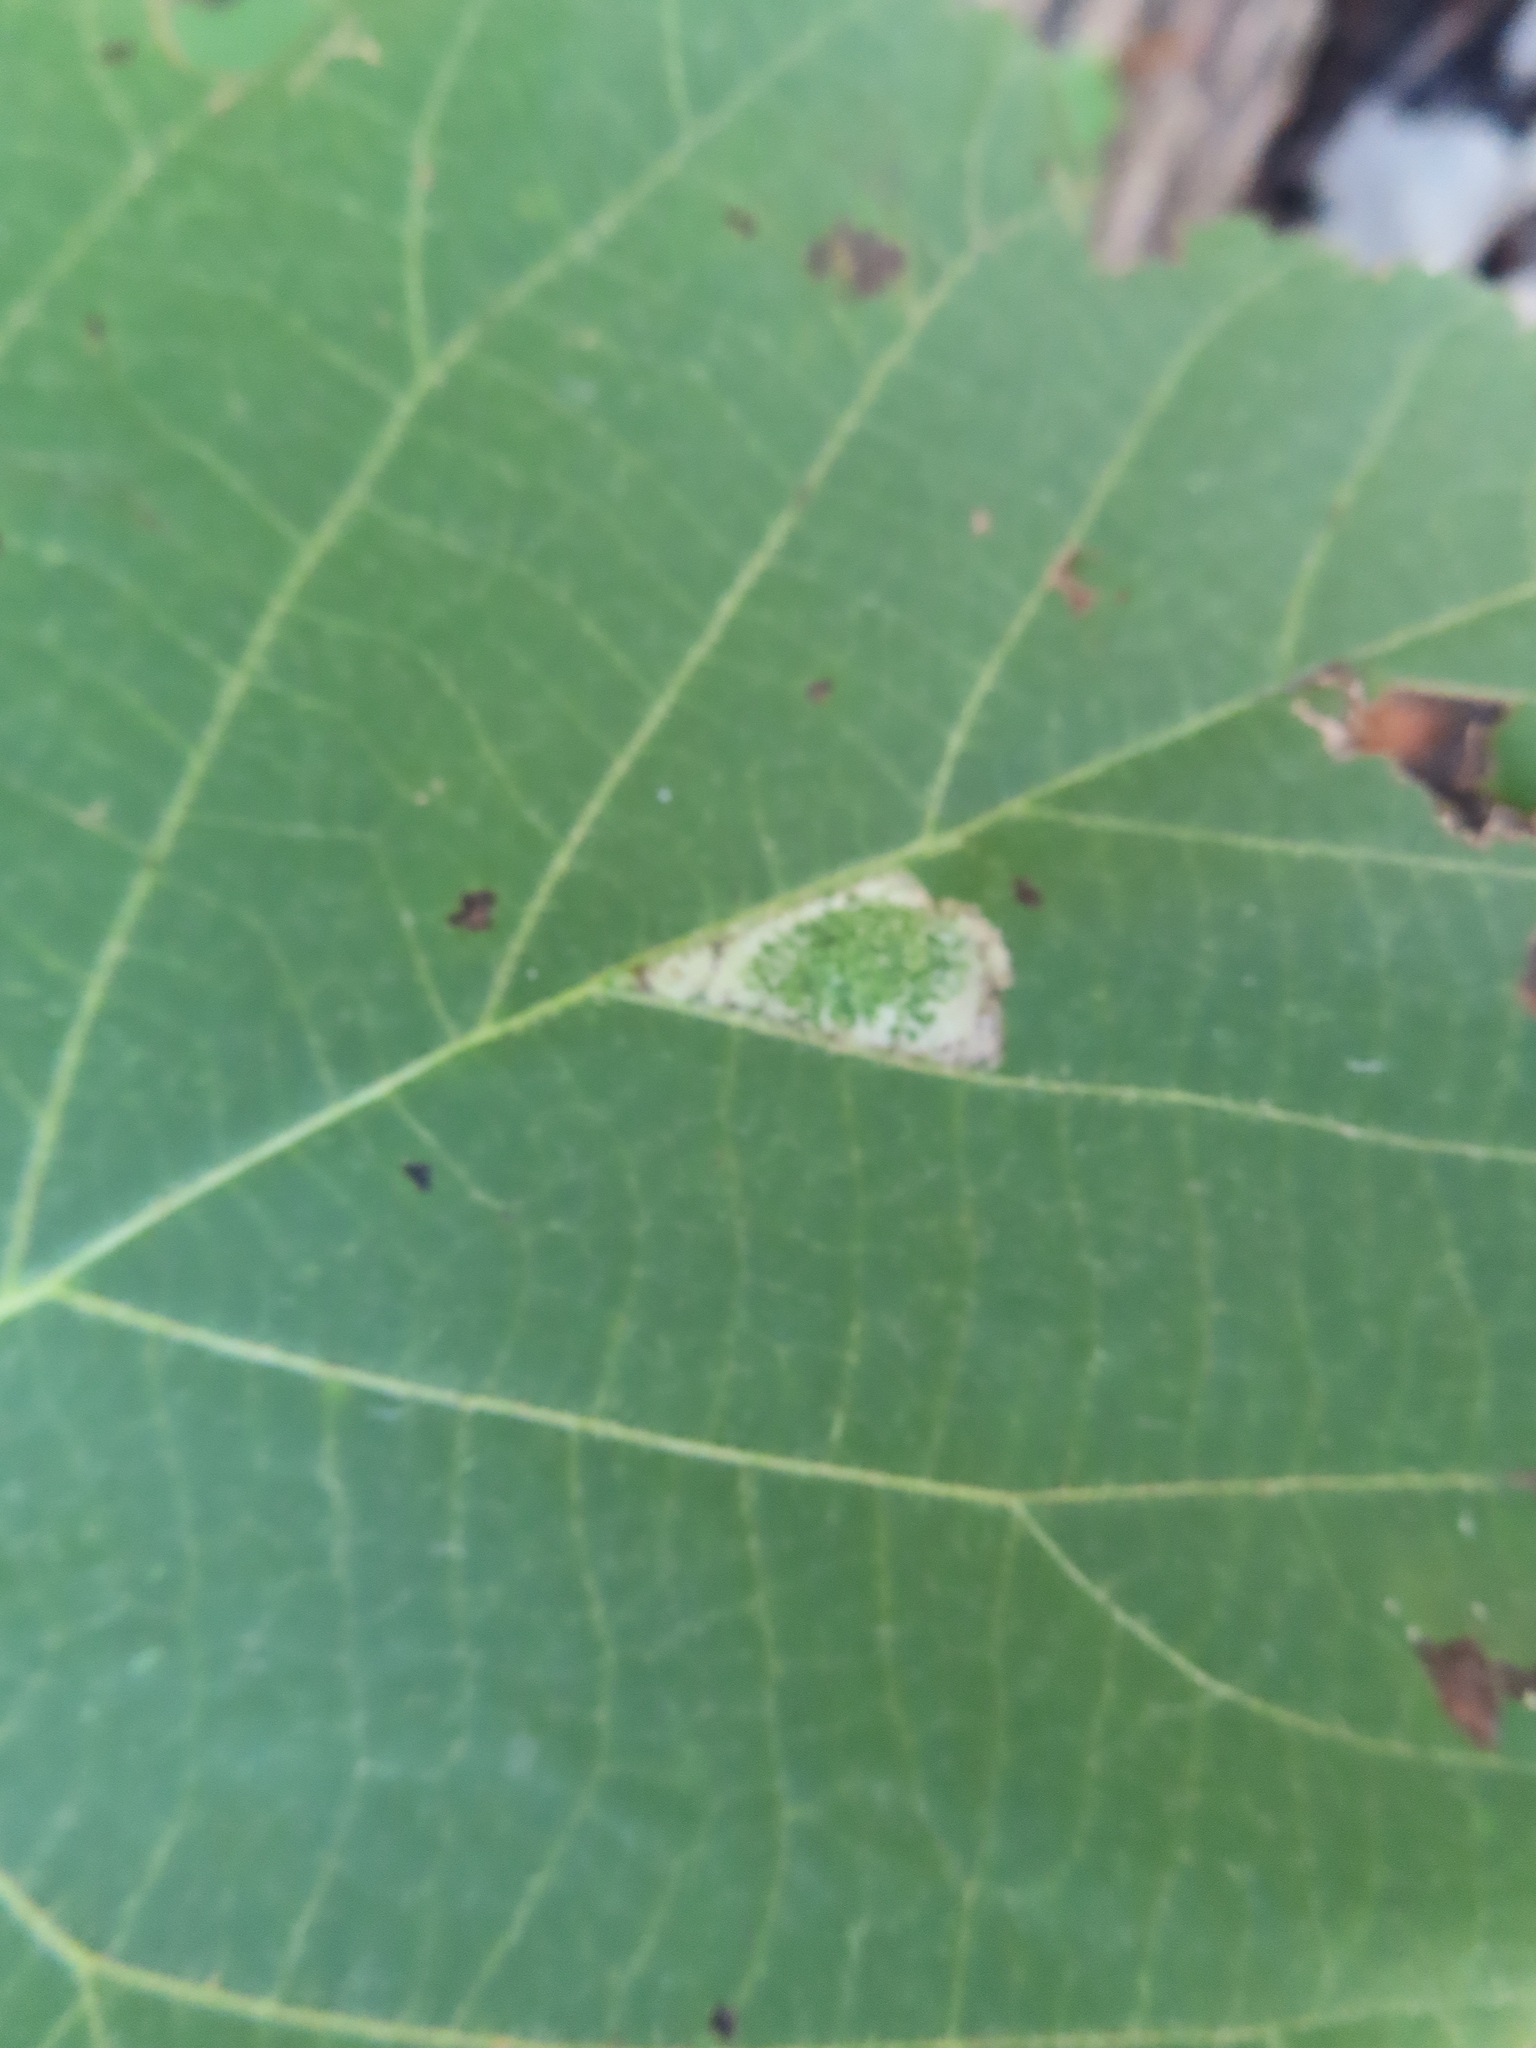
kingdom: Animalia
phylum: Arthropoda
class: Insecta
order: Lepidoptera
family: Gracillariidae
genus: Phyllonorycter
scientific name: Phyllonorycter lucetiella
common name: Basswood miner moth
